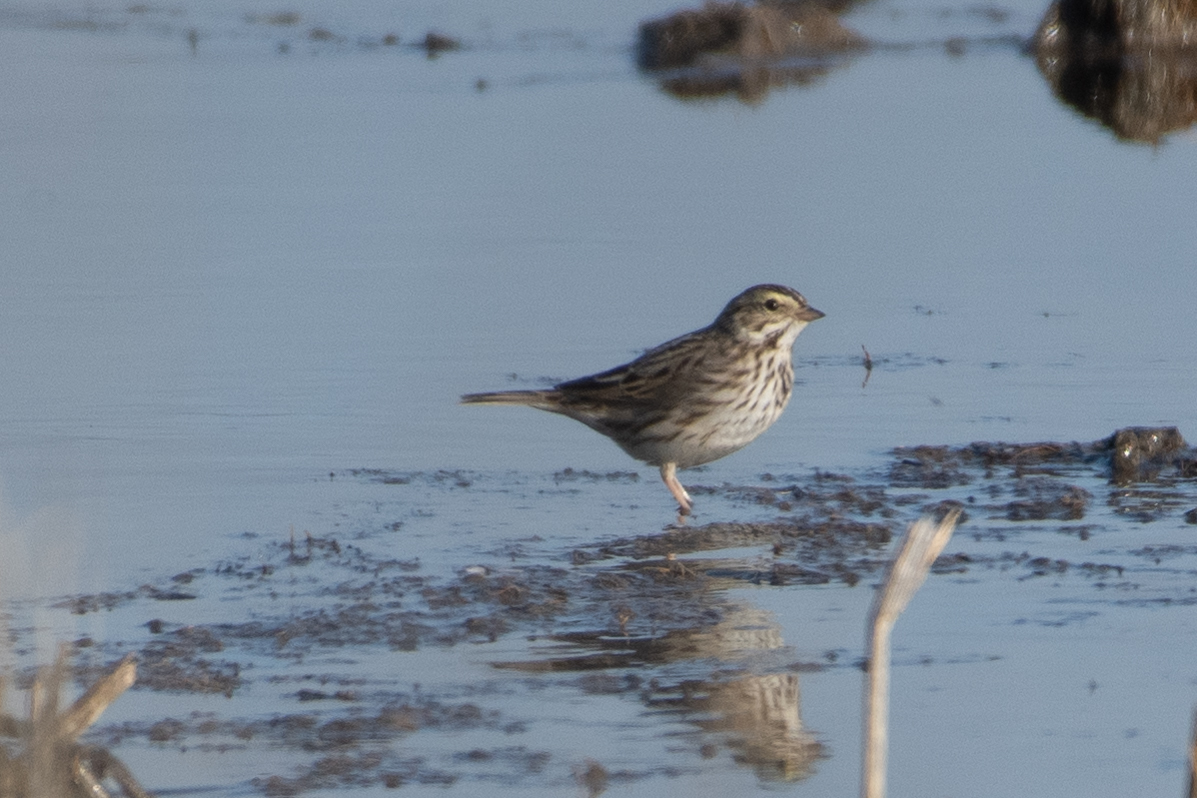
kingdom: Animalia
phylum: Chordata
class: Aves
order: Passeriformes
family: Passerellidae
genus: Passerculus
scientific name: Passerculus sandwichensis
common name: Savannah sparrow
